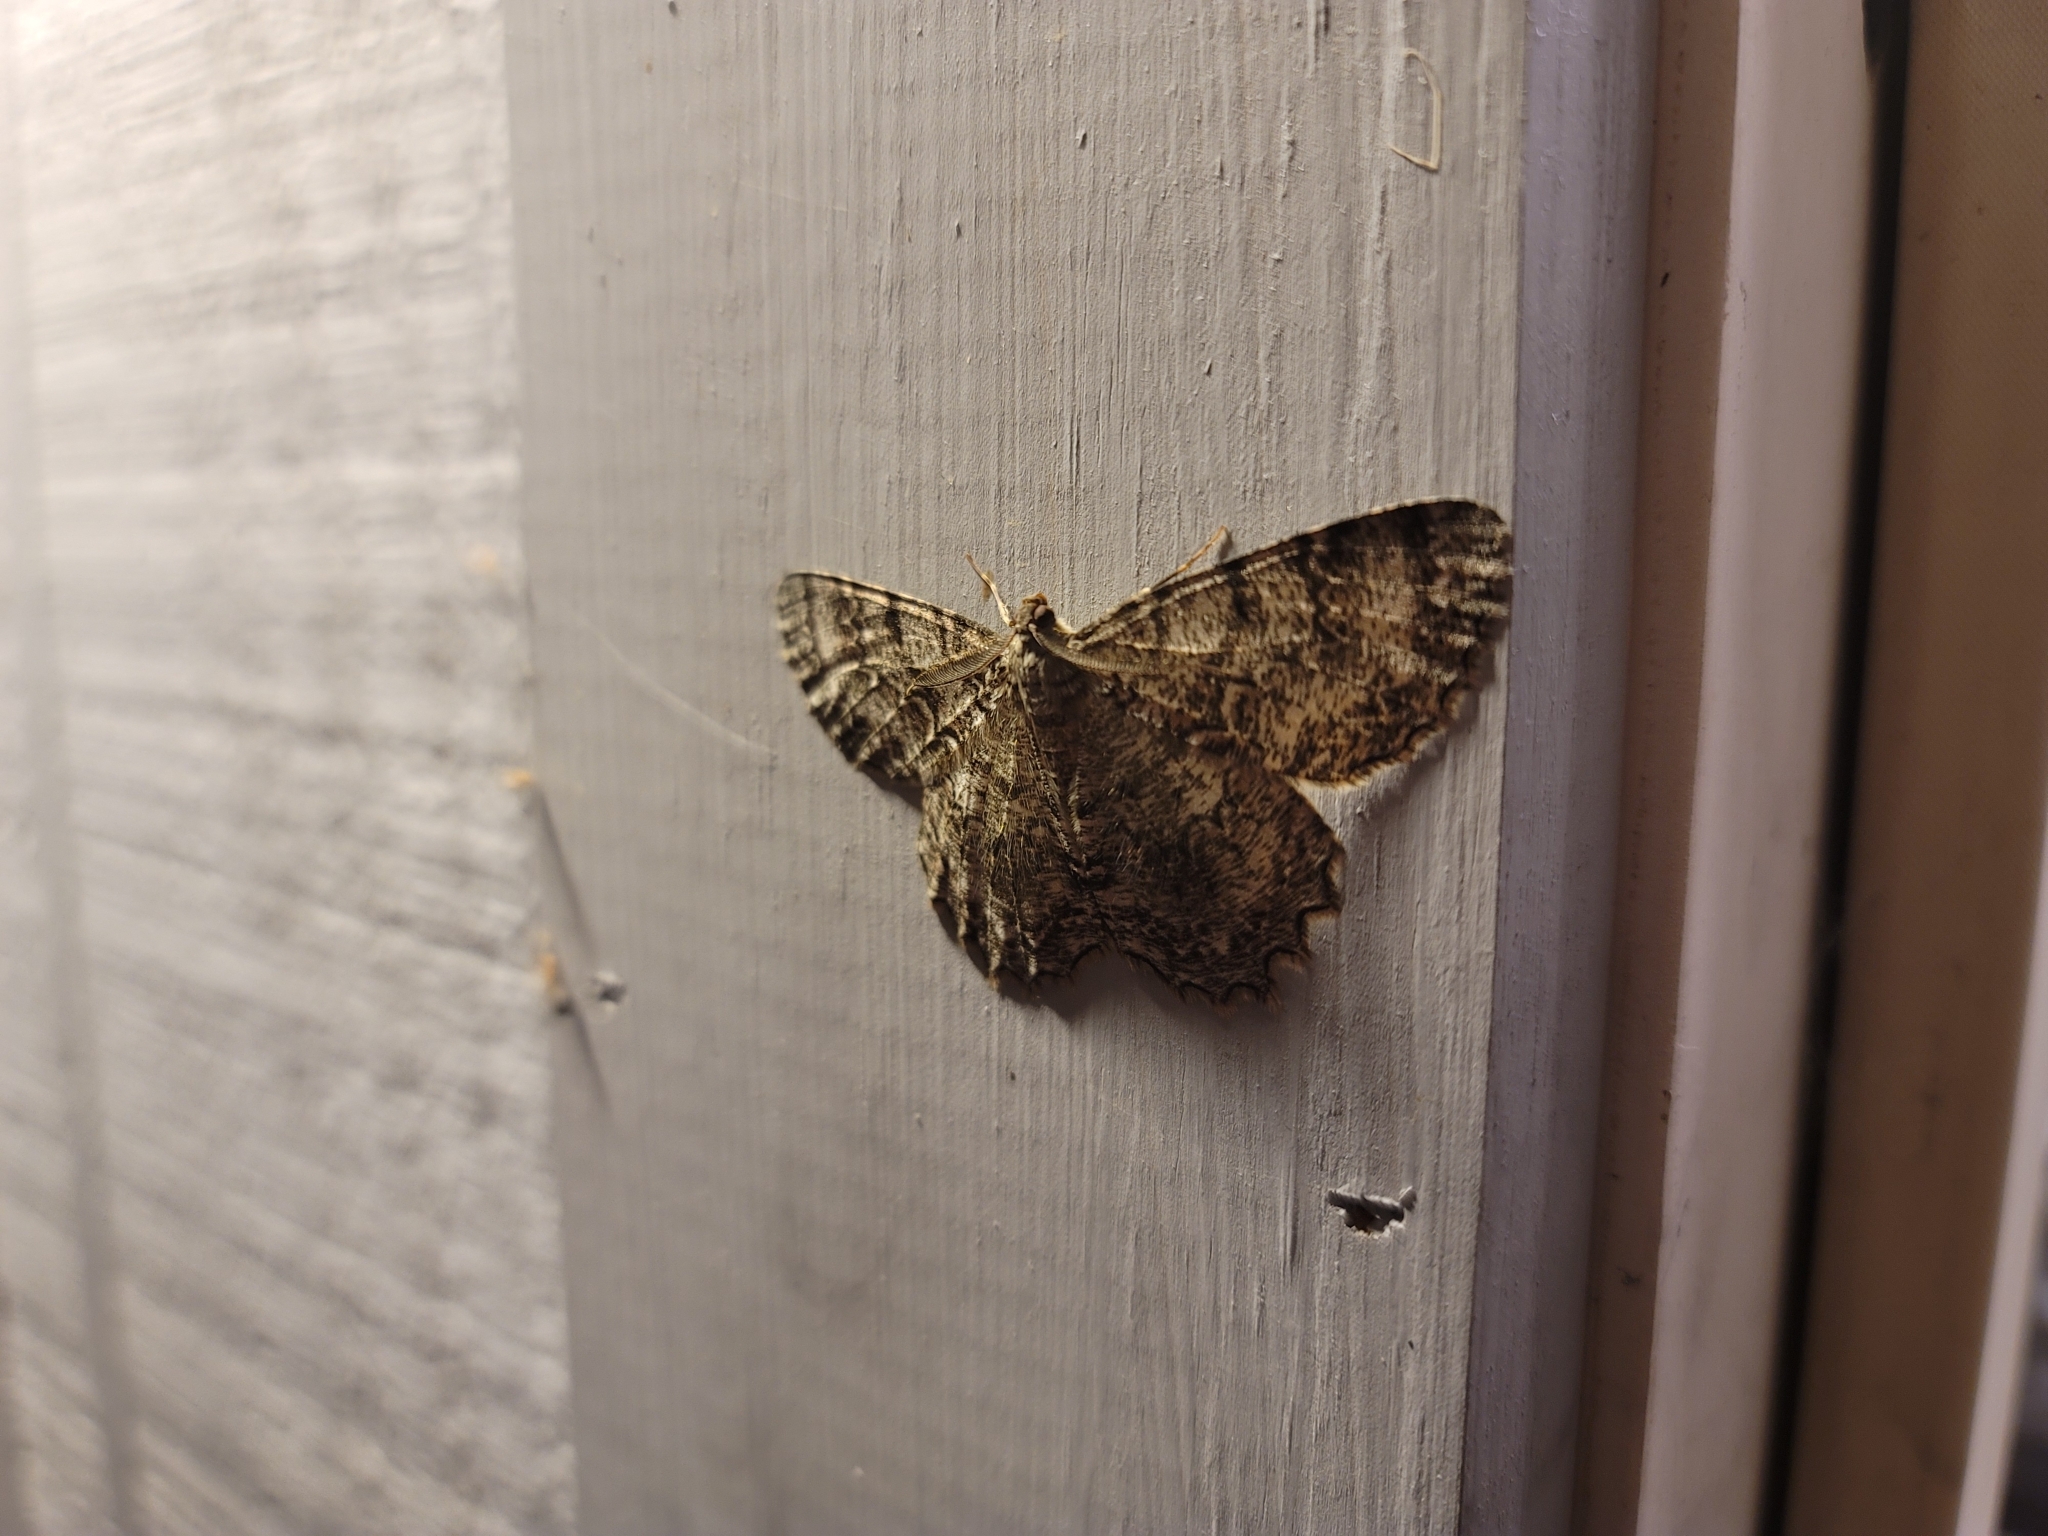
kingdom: Animalia
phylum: Arthropoda
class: Insecta
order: Lepidoptera
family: Geometridae
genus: Epimecis
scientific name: Epimecis hortaria
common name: Tulip-tree beauty
